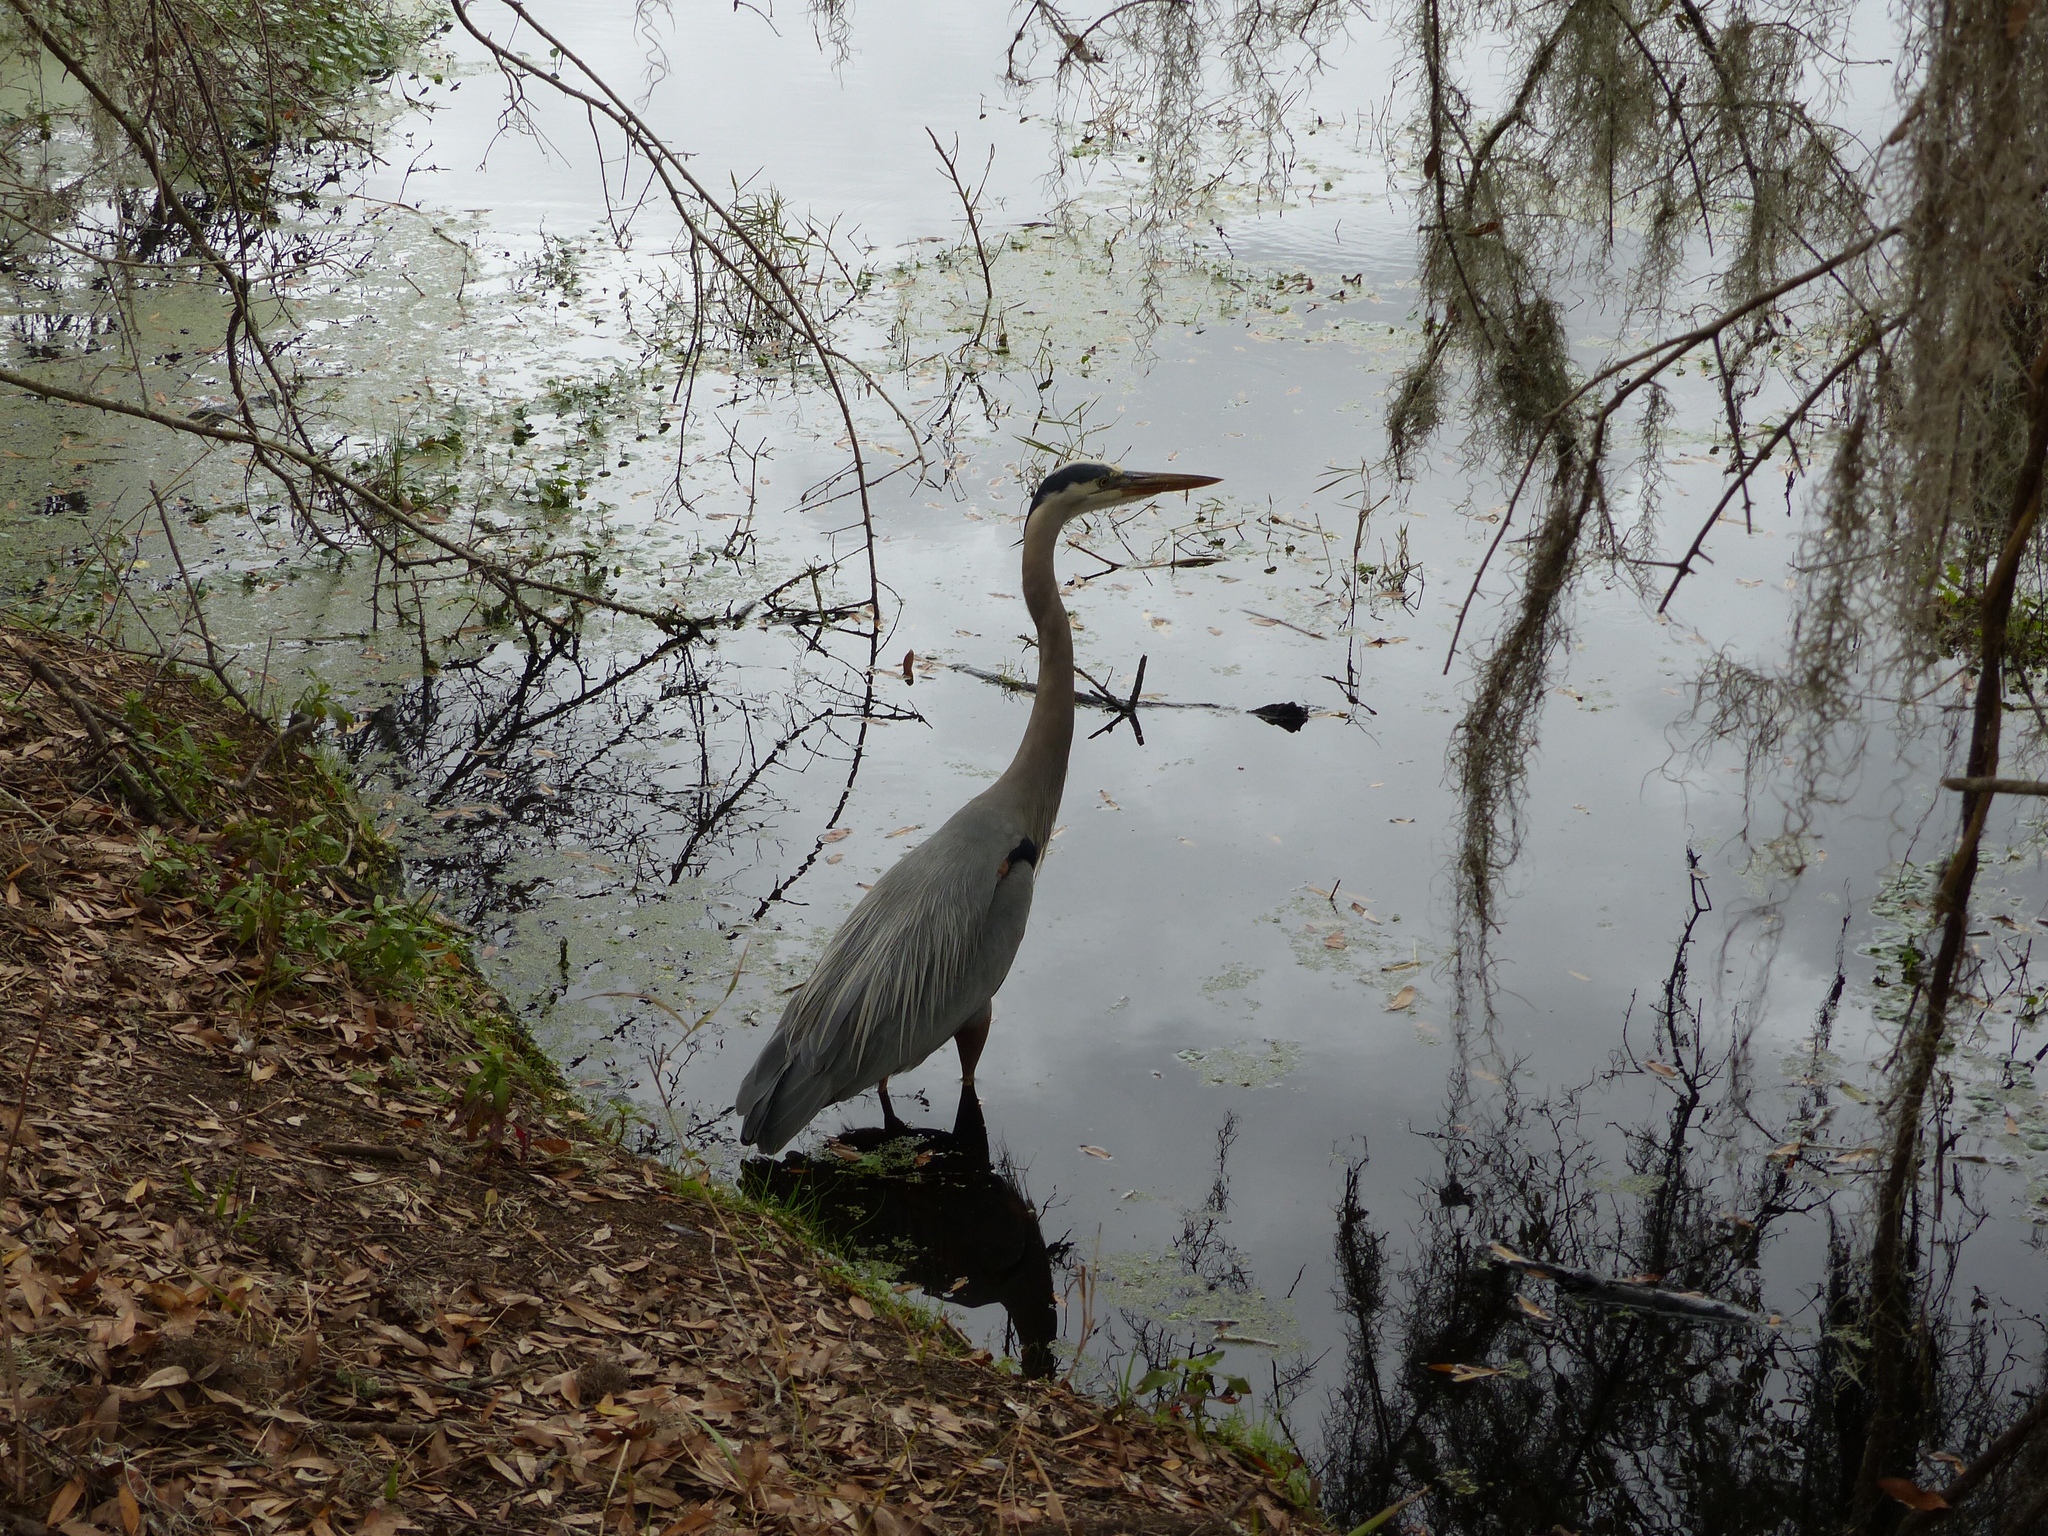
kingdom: Animalia
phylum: Chordata
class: Aves
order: Pelecaniformes
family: Ardeidae
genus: Ardea
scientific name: Ardea herodias
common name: Great blue heron
